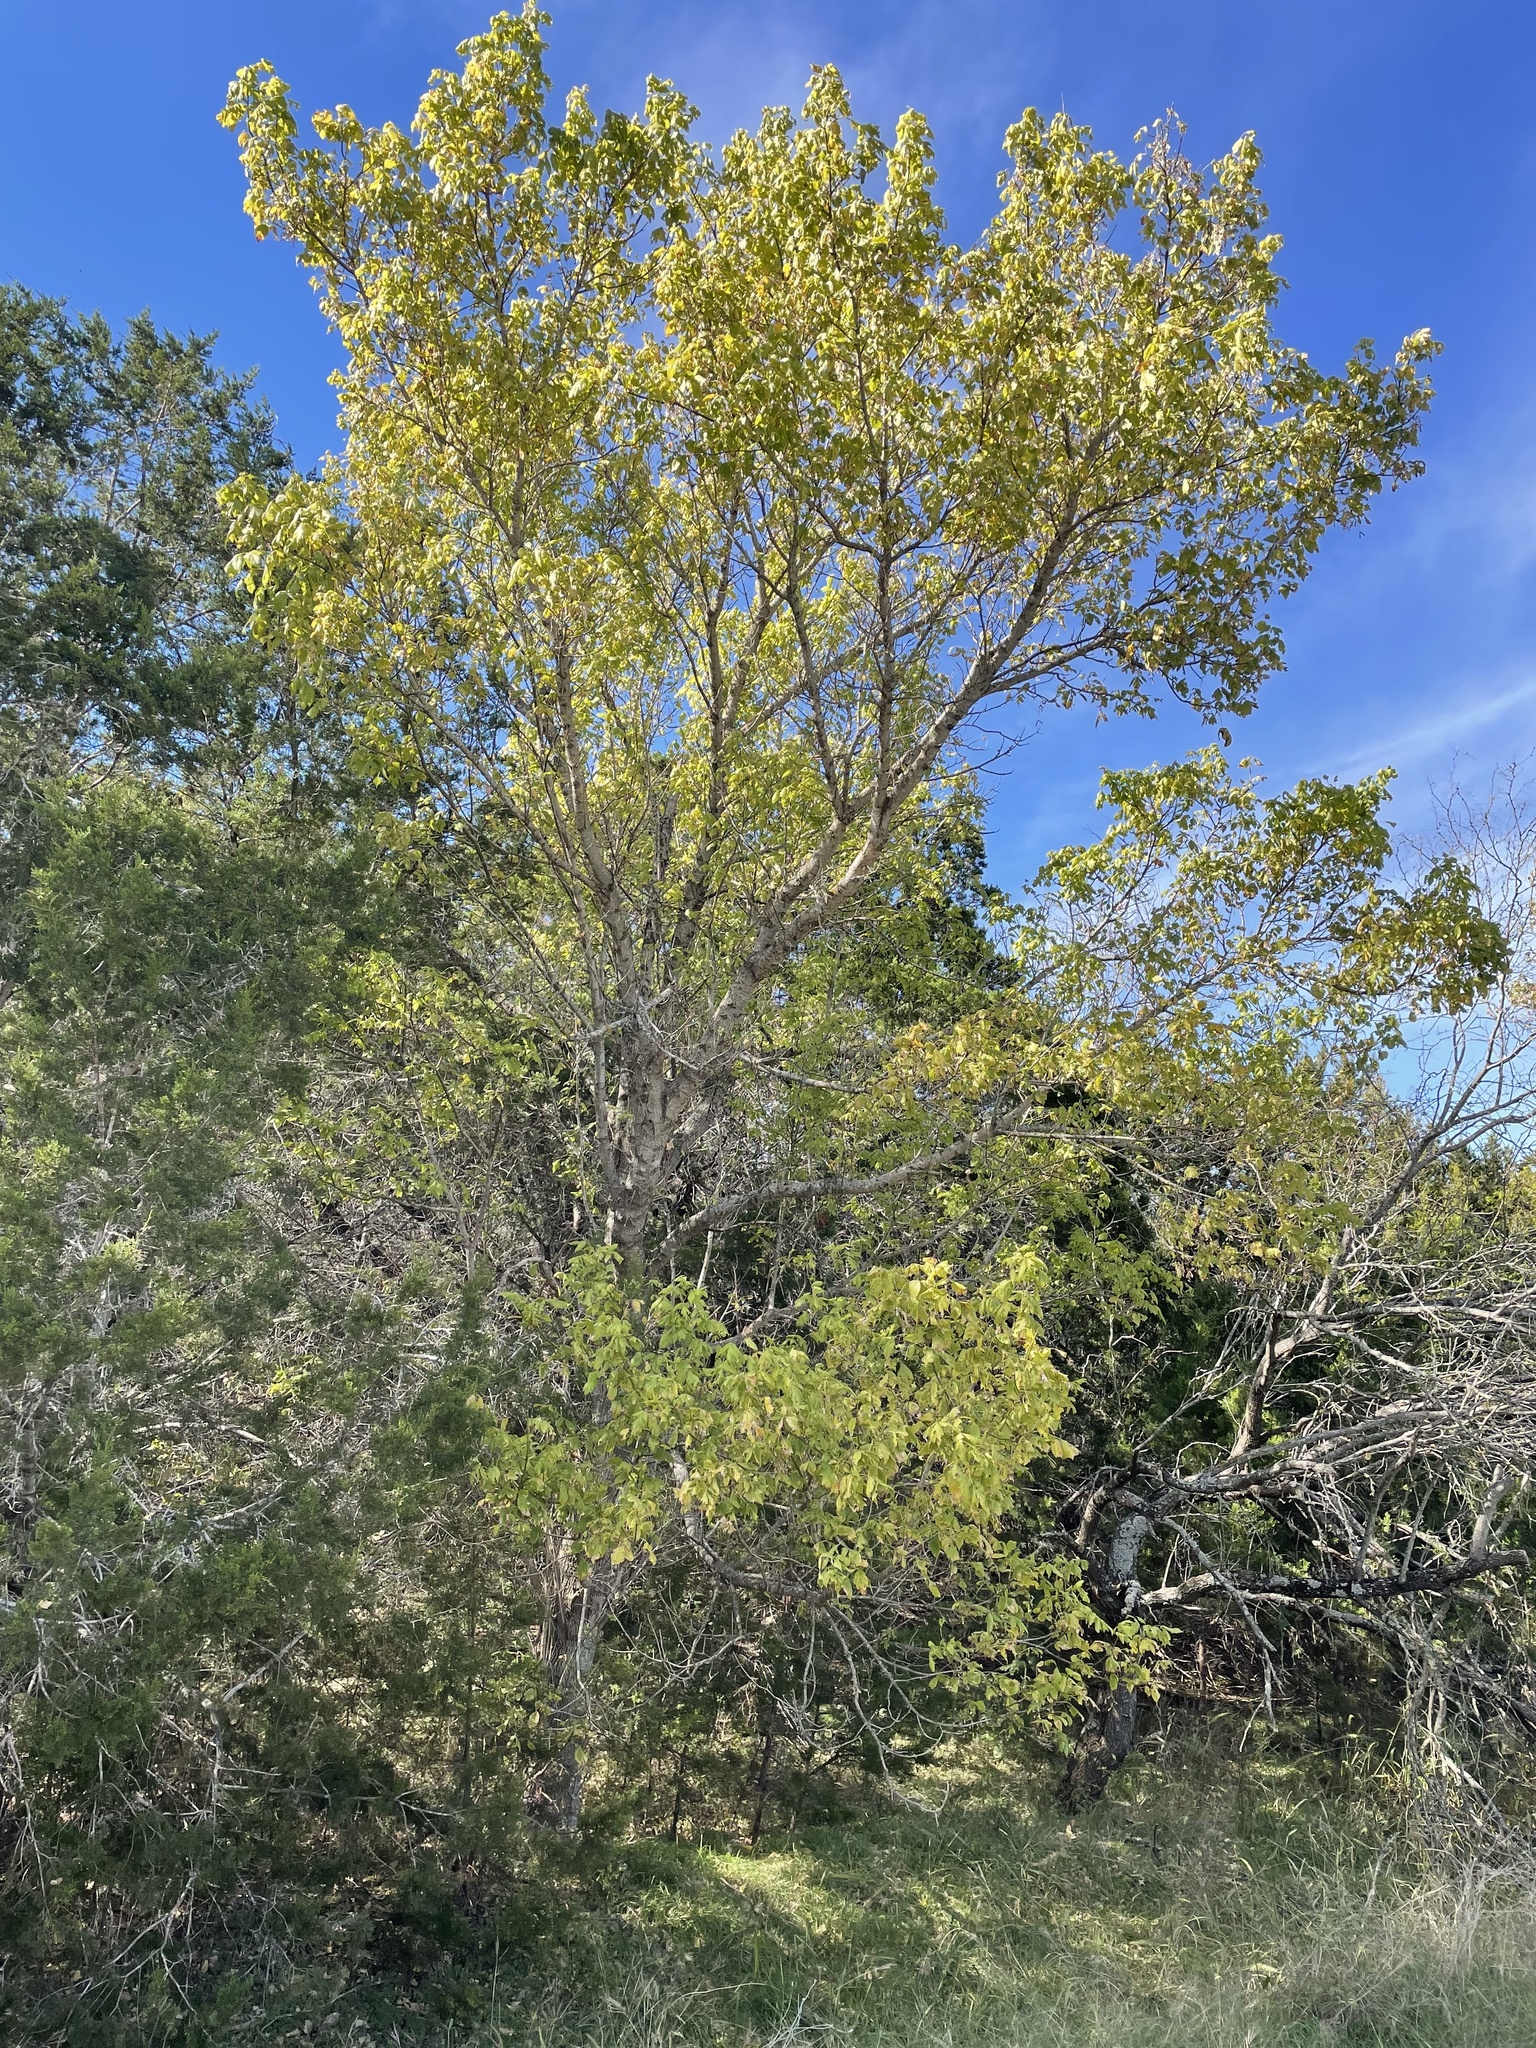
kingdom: Plantae
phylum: Tracheophyta
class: Magnoliopsida
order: Sapindales
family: Sapindaceae
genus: Acer
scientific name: Acer negundo
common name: Ashleaf maple
